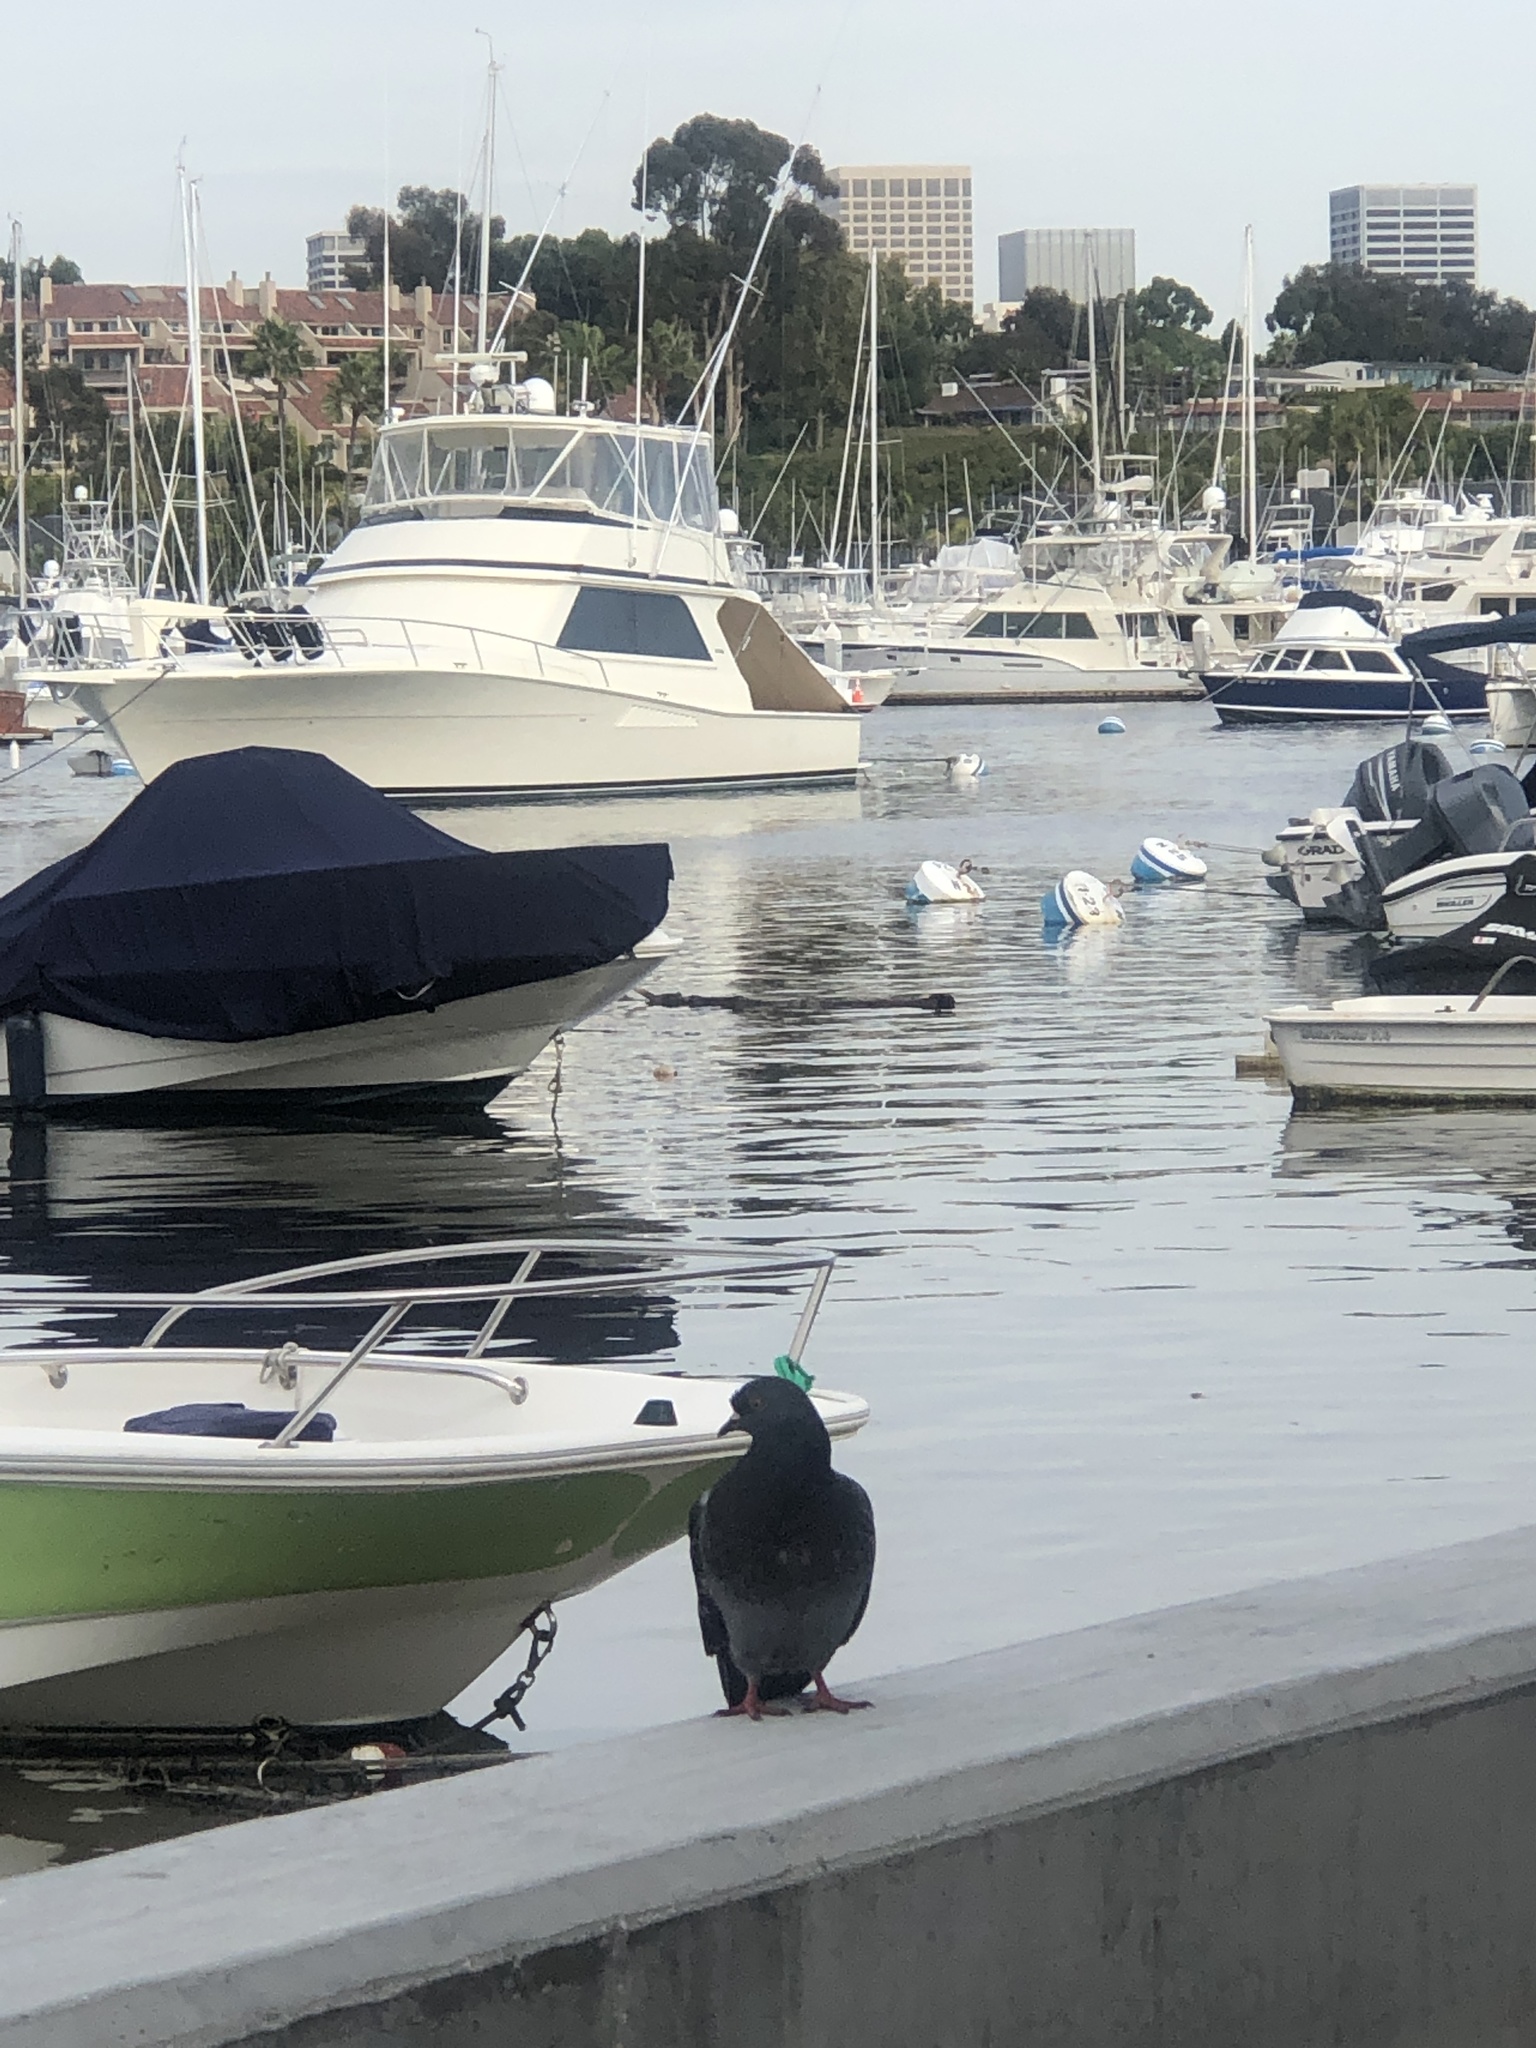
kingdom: Animalia
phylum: Chordata
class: Aves
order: Columbiformes
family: Columbidae
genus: Columba
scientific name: Columba livia
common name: Rock pigeon
